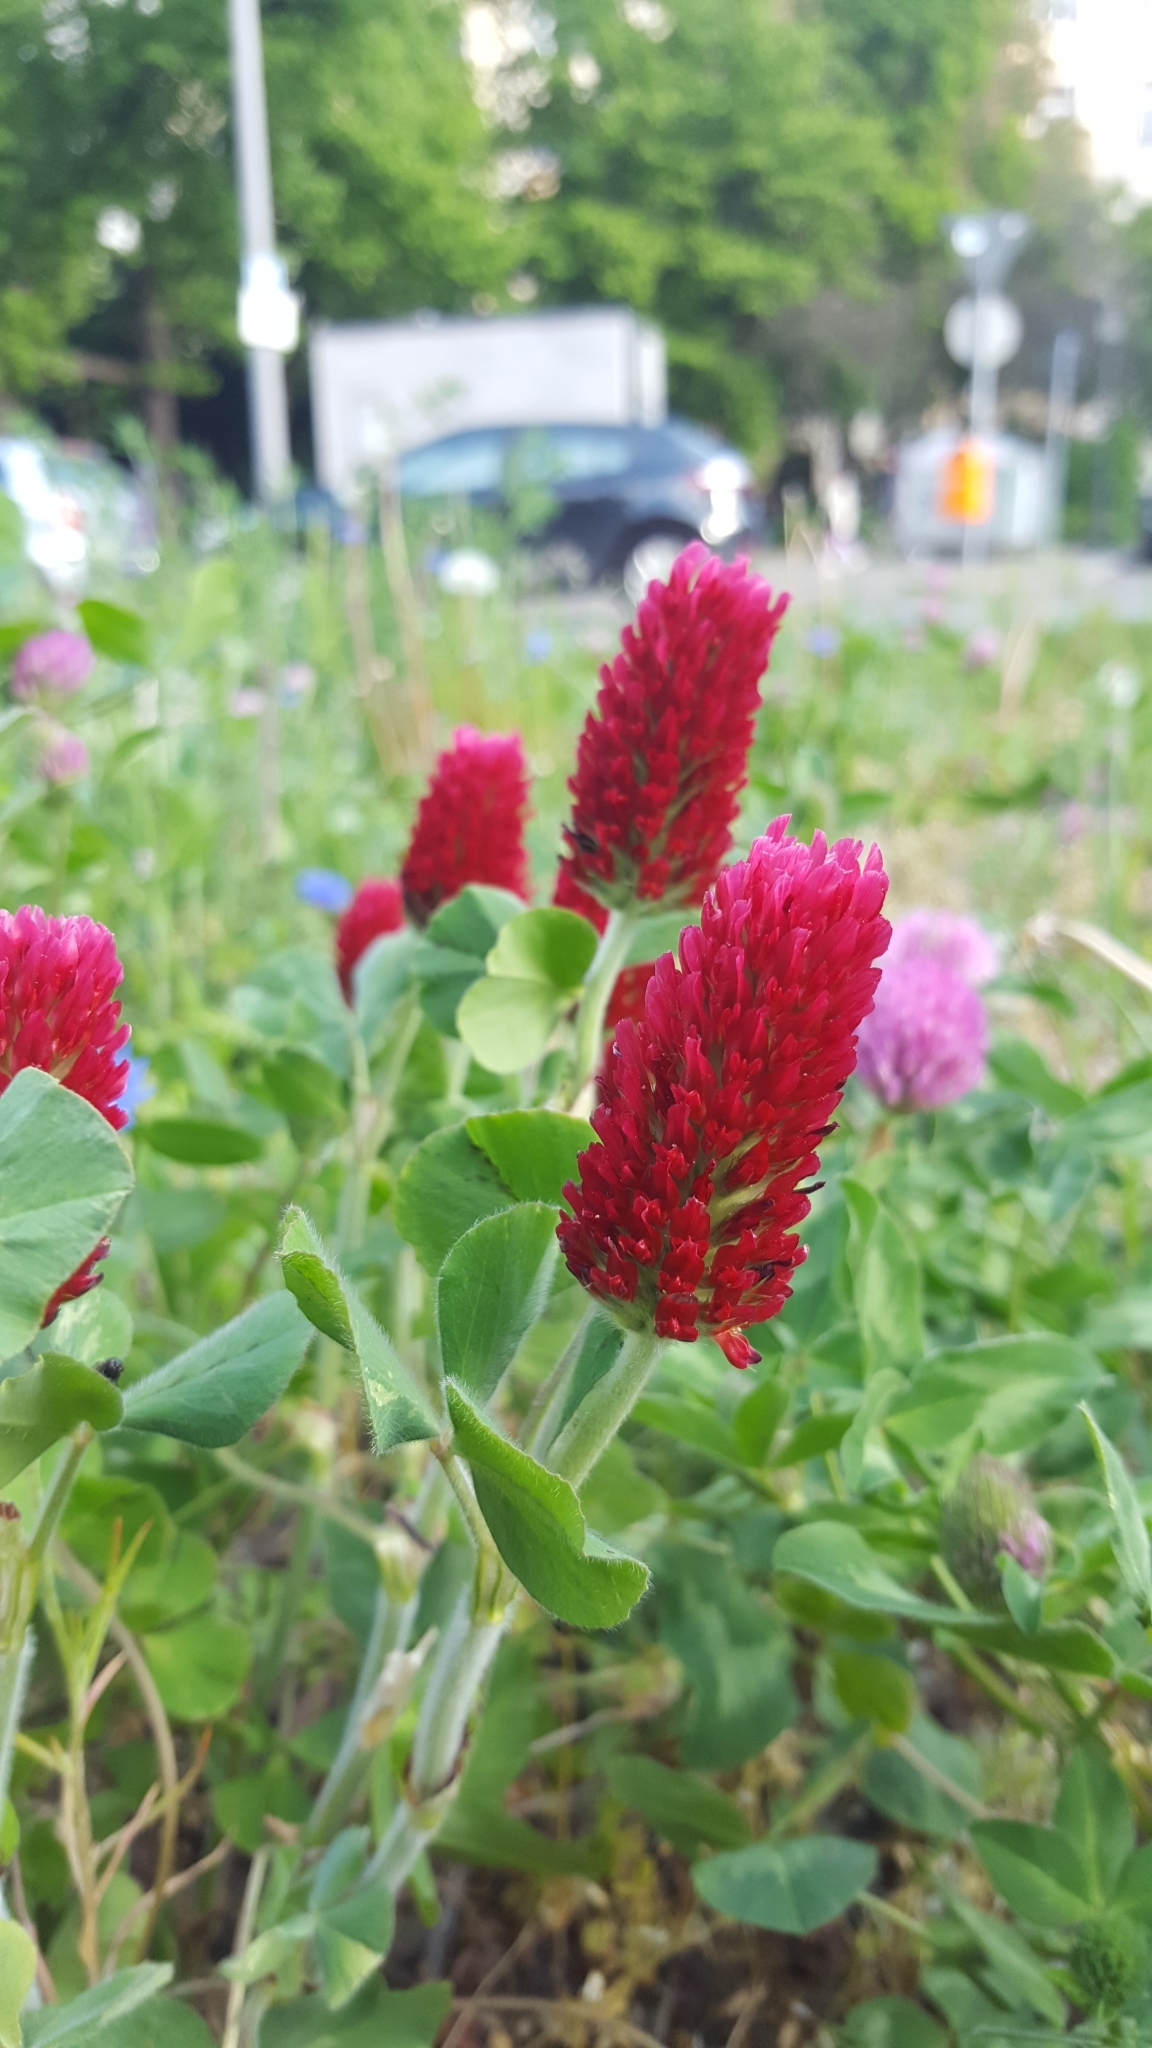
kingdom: Plantae
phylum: Tracheophyta
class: Magnoliopsida
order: Fabales
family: Fabaceae
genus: Trifolium
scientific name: Trifolium incarnatum
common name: Crimson clover
